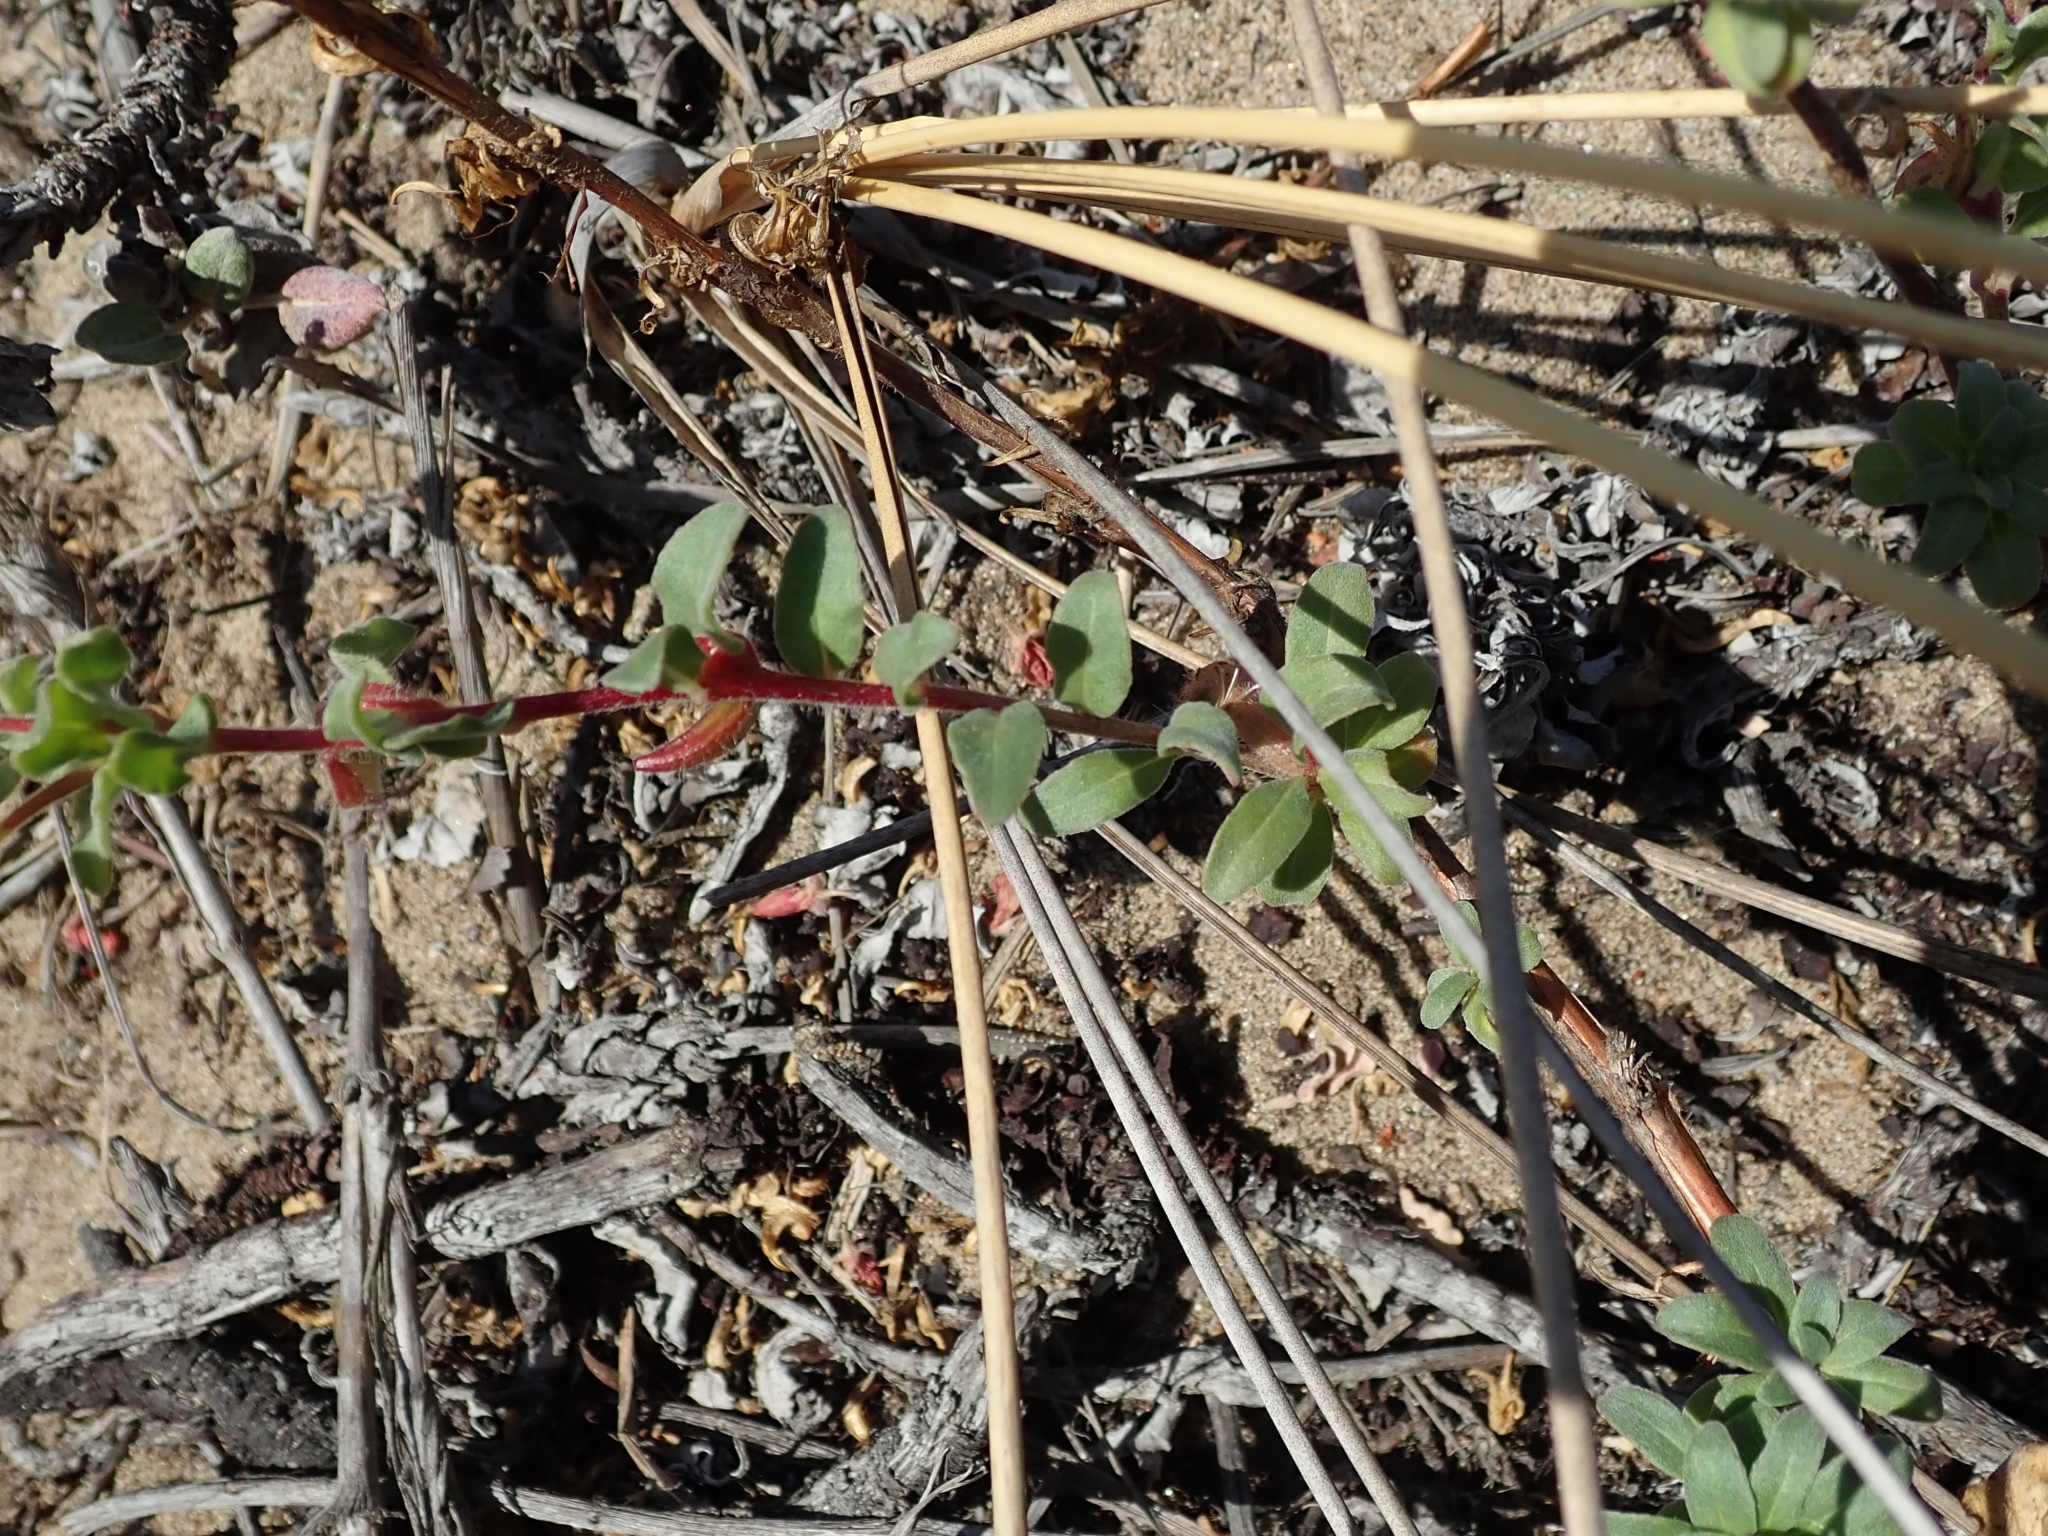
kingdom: Plantae
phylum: Tracheophyta
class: Magnoliopsida
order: Myrtales
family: Onagraceae
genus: Camissoniopsis
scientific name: Camissoniopsis cheiranthifolia
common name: Beach suncup
